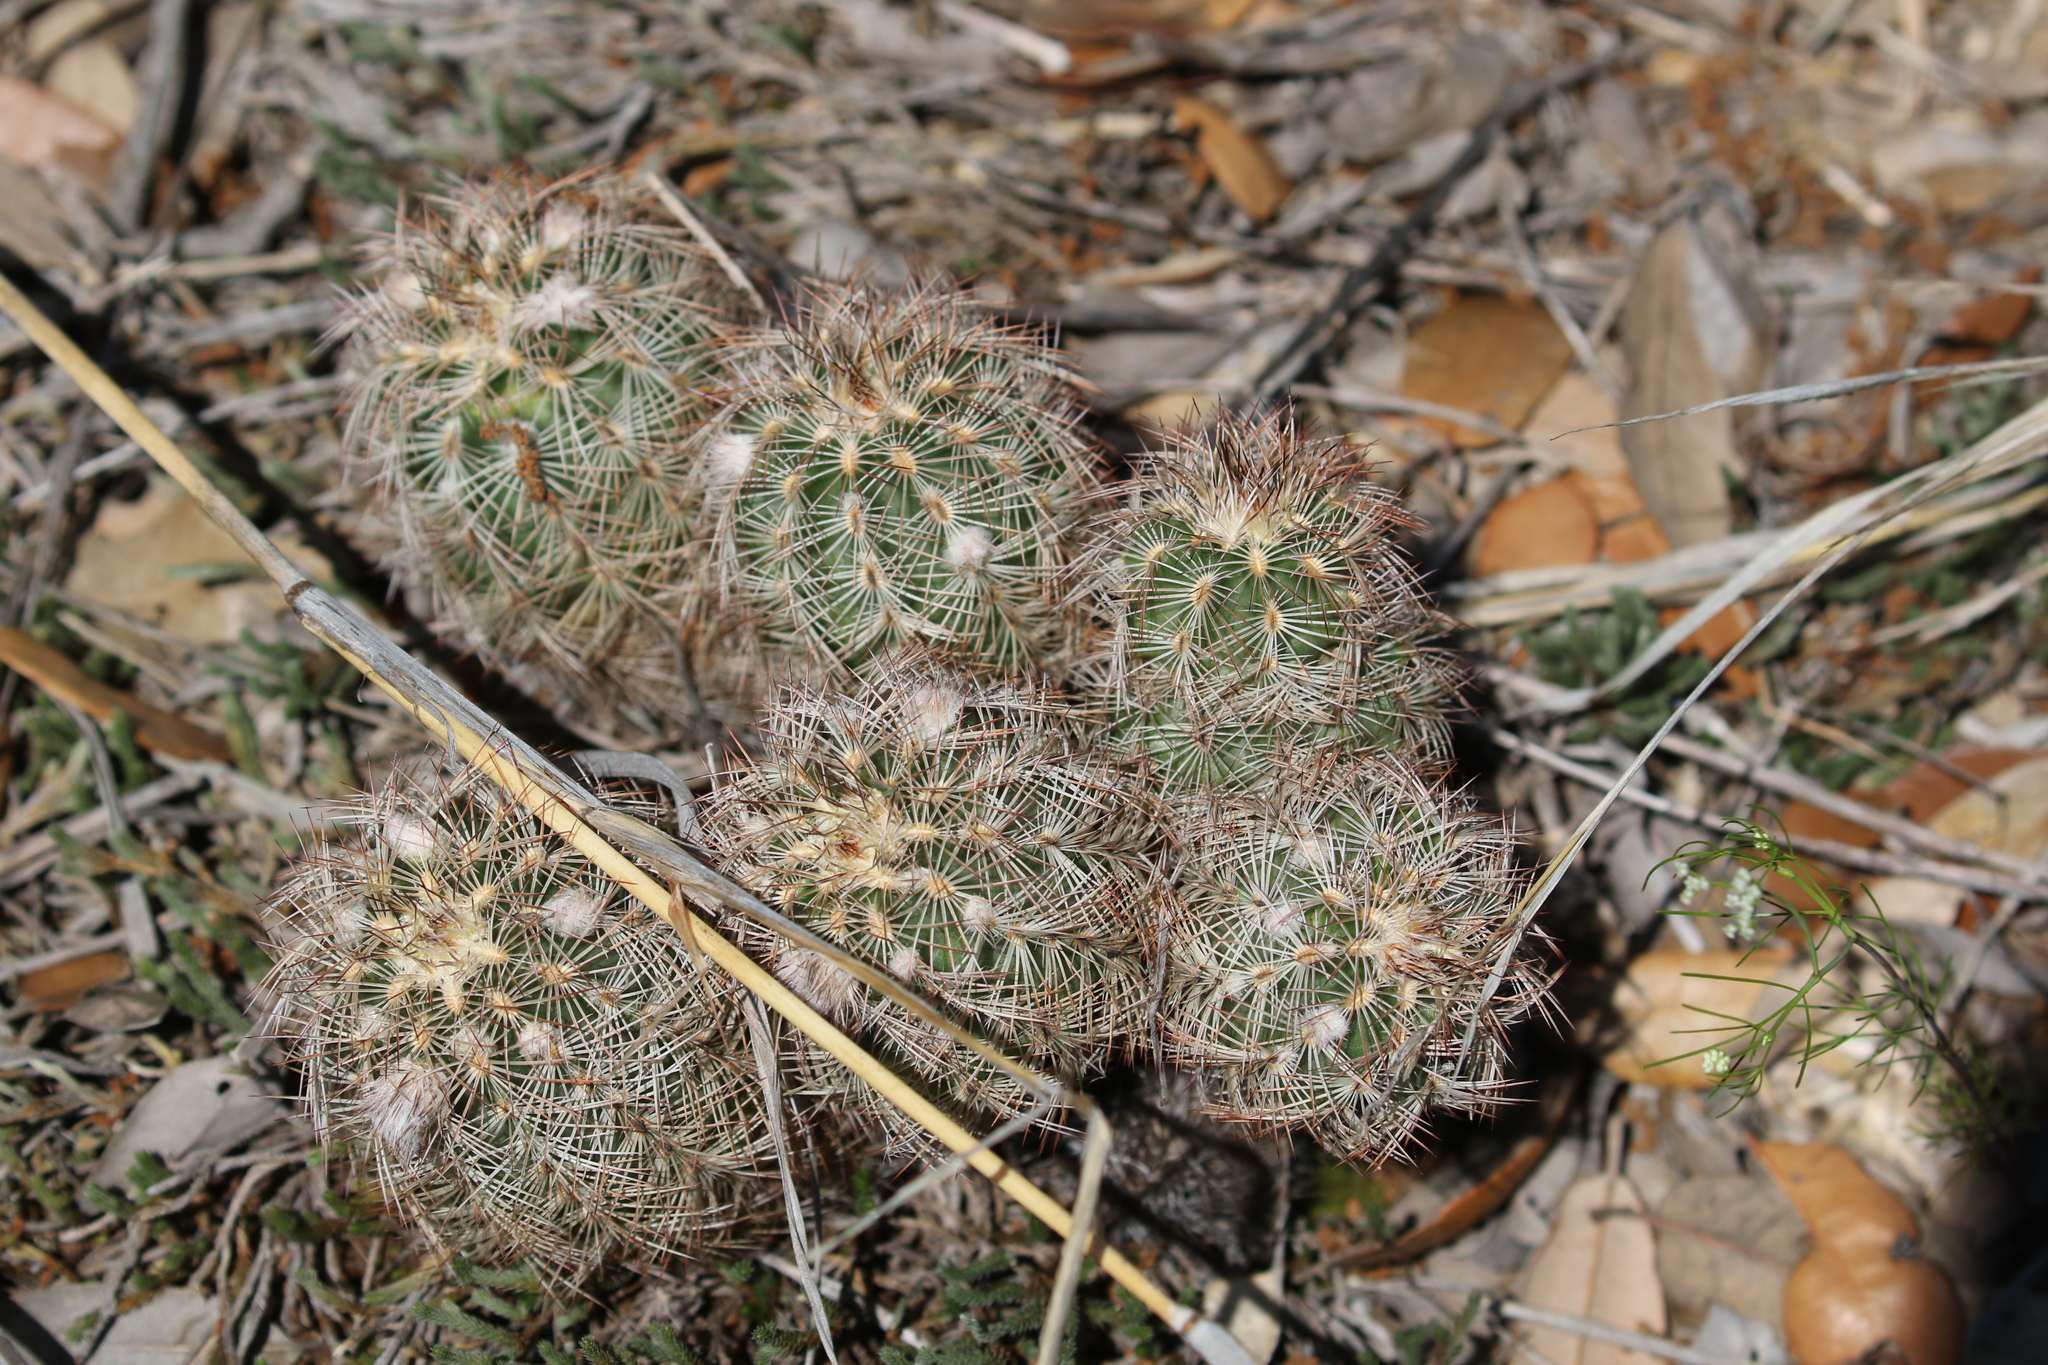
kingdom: Plantae
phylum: Tracheophyta
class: Magnoliopsida
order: Caryophyllales
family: Cactaceae
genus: Echinocereus
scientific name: Echinocereus reichenbachii
